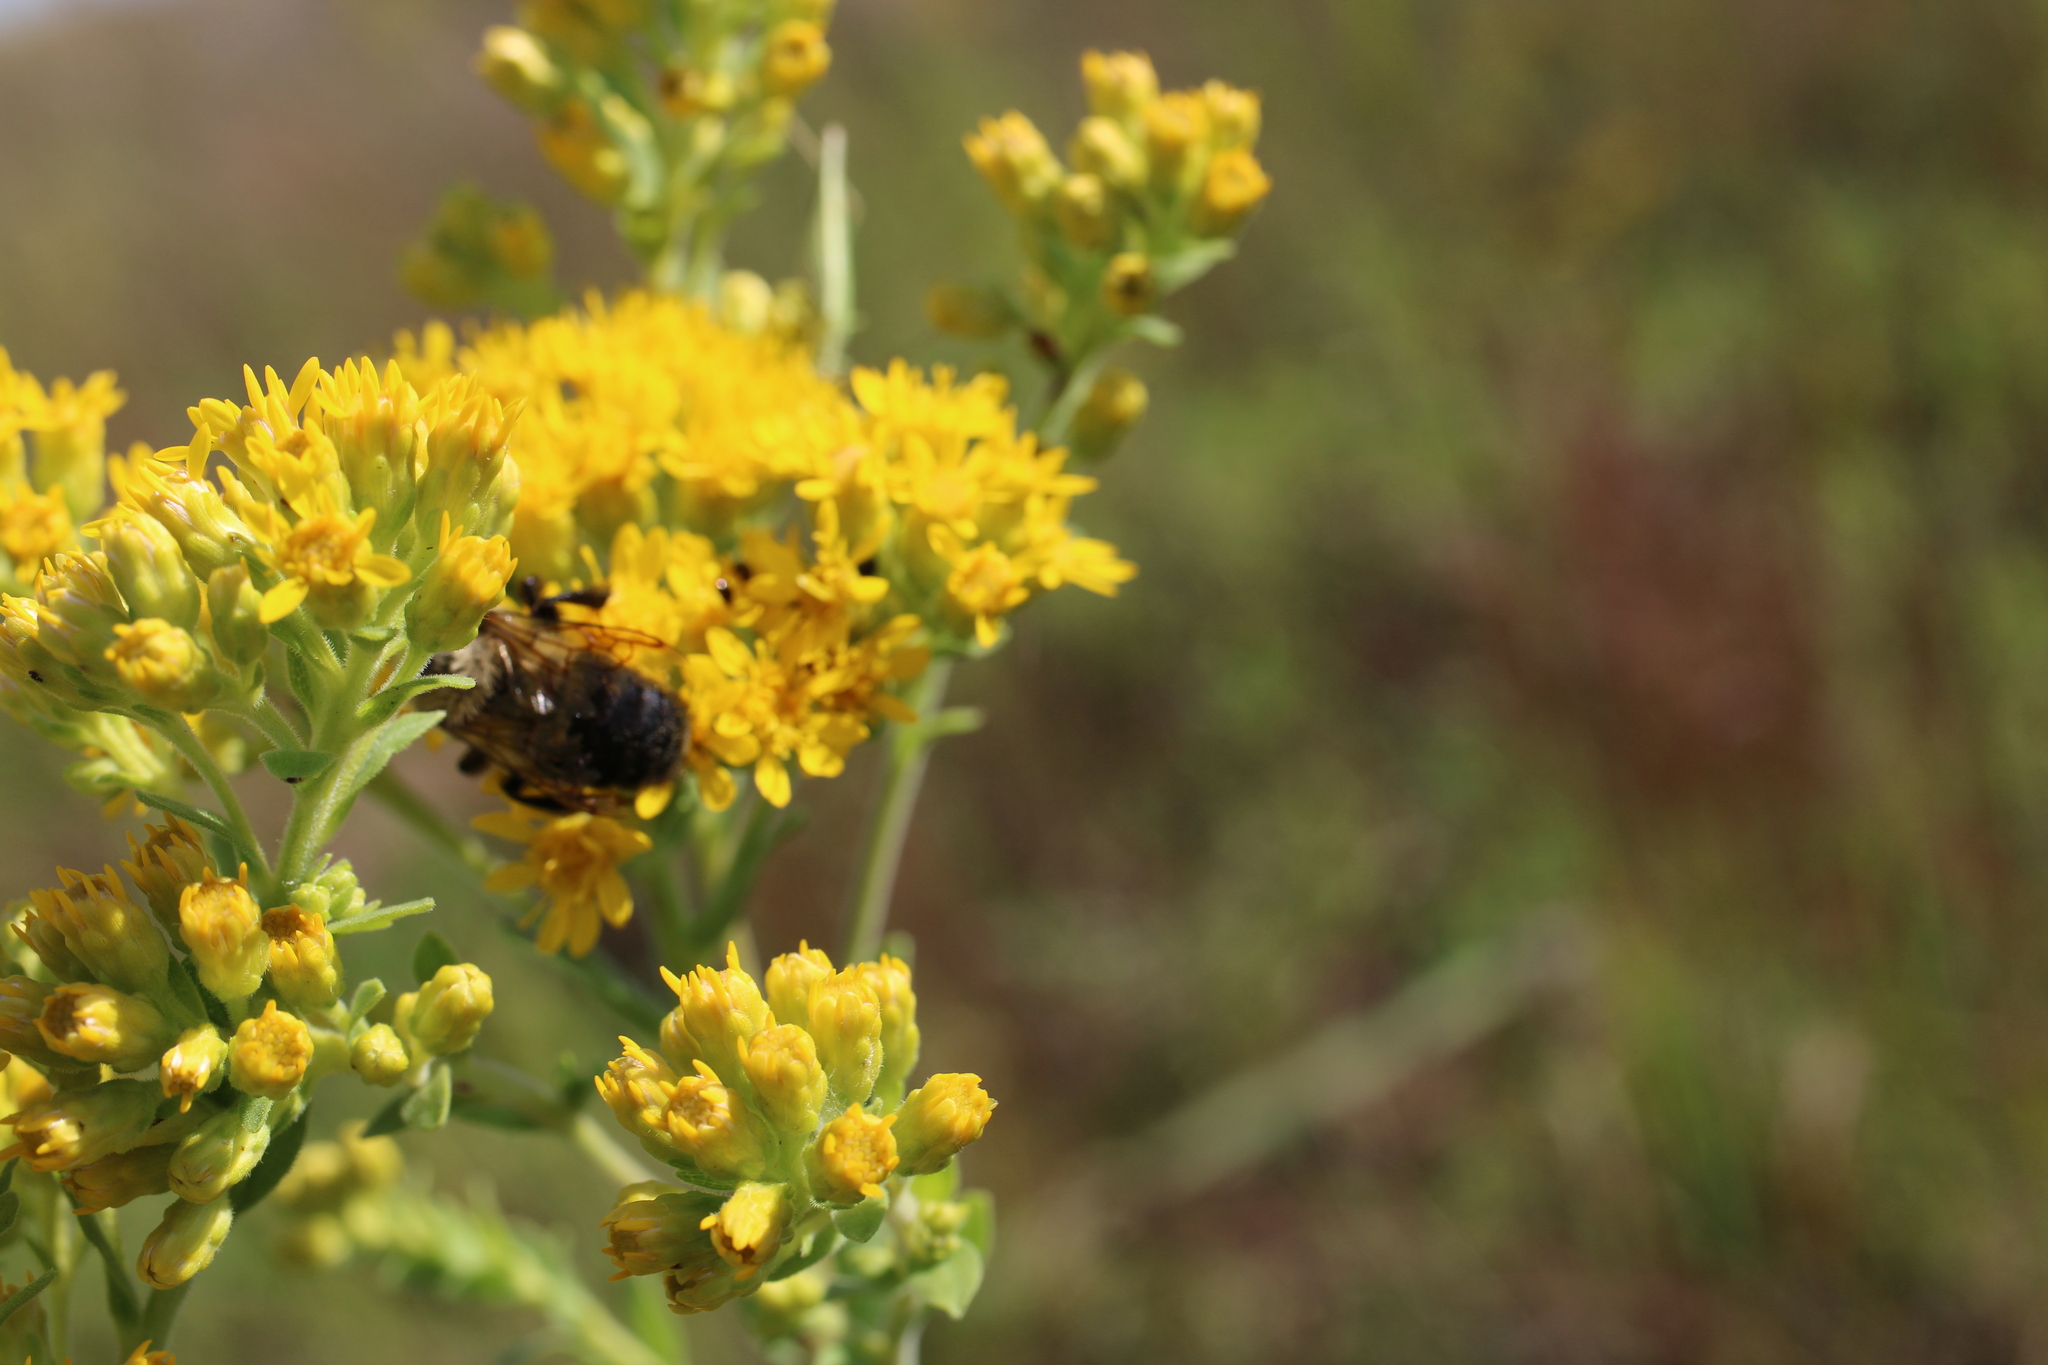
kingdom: Animalia
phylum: Arthropoda
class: Insecta
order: Hymenoptera
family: Apidae
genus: Bombus
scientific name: Bombus griseocollis
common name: Brown-belted bumble bee
